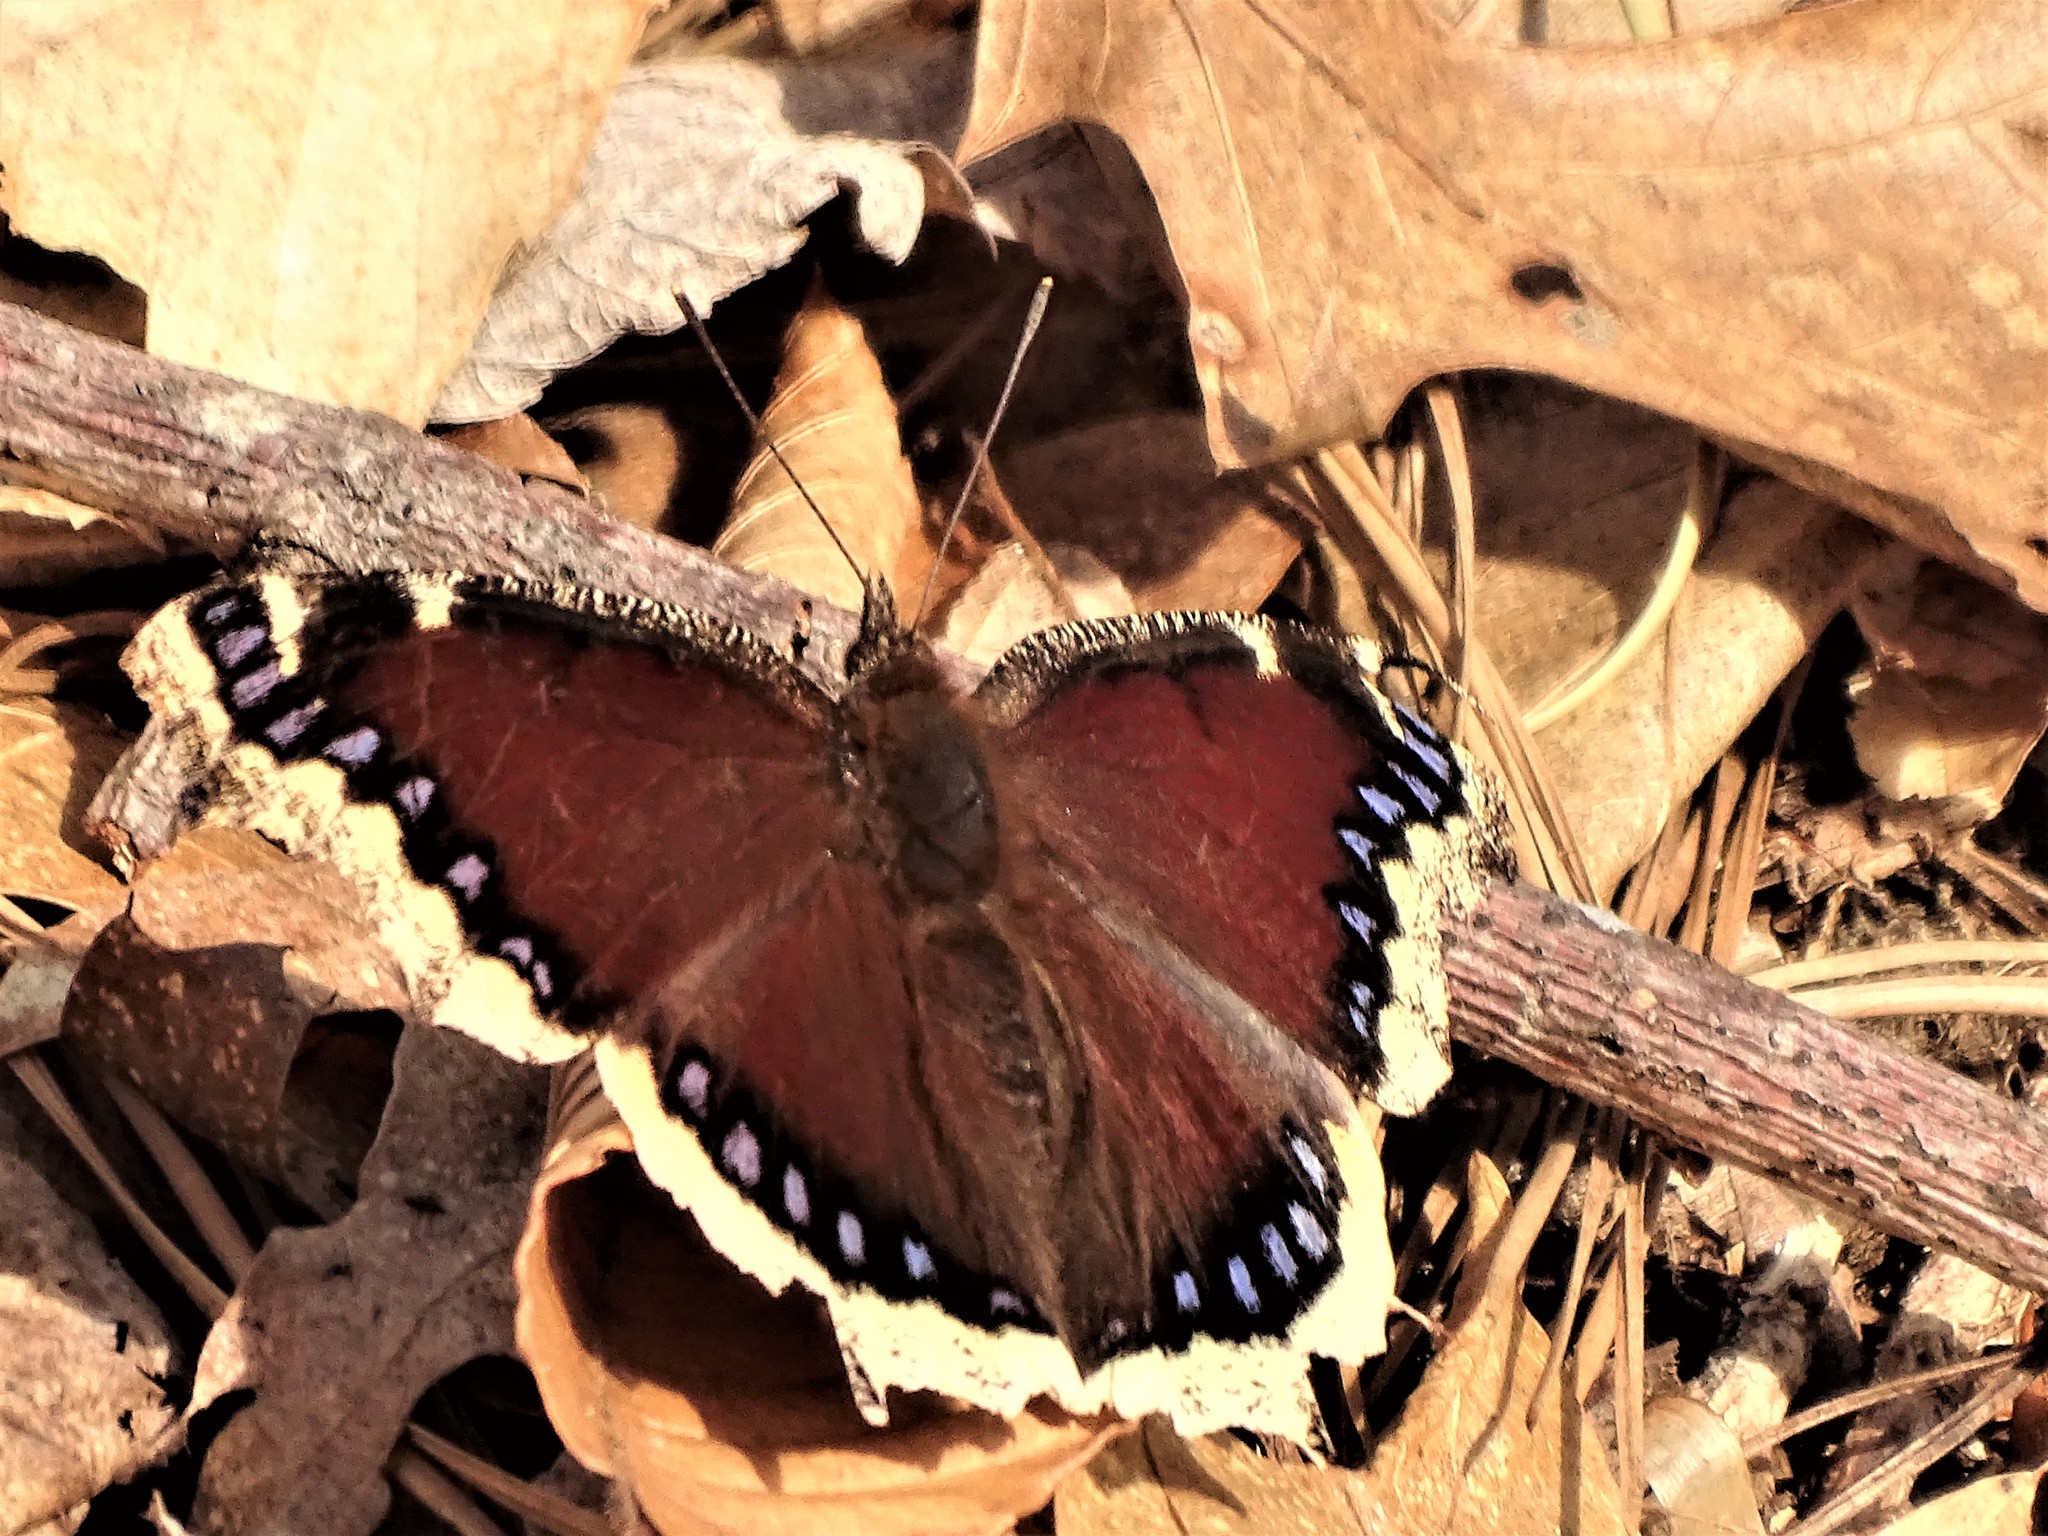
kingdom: Animalia
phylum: Arthropoda
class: Insecta
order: Lepidoptera
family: Nymphalidae
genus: Nymphalis
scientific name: Nymphalis antiopa
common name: Camberwell beauty
